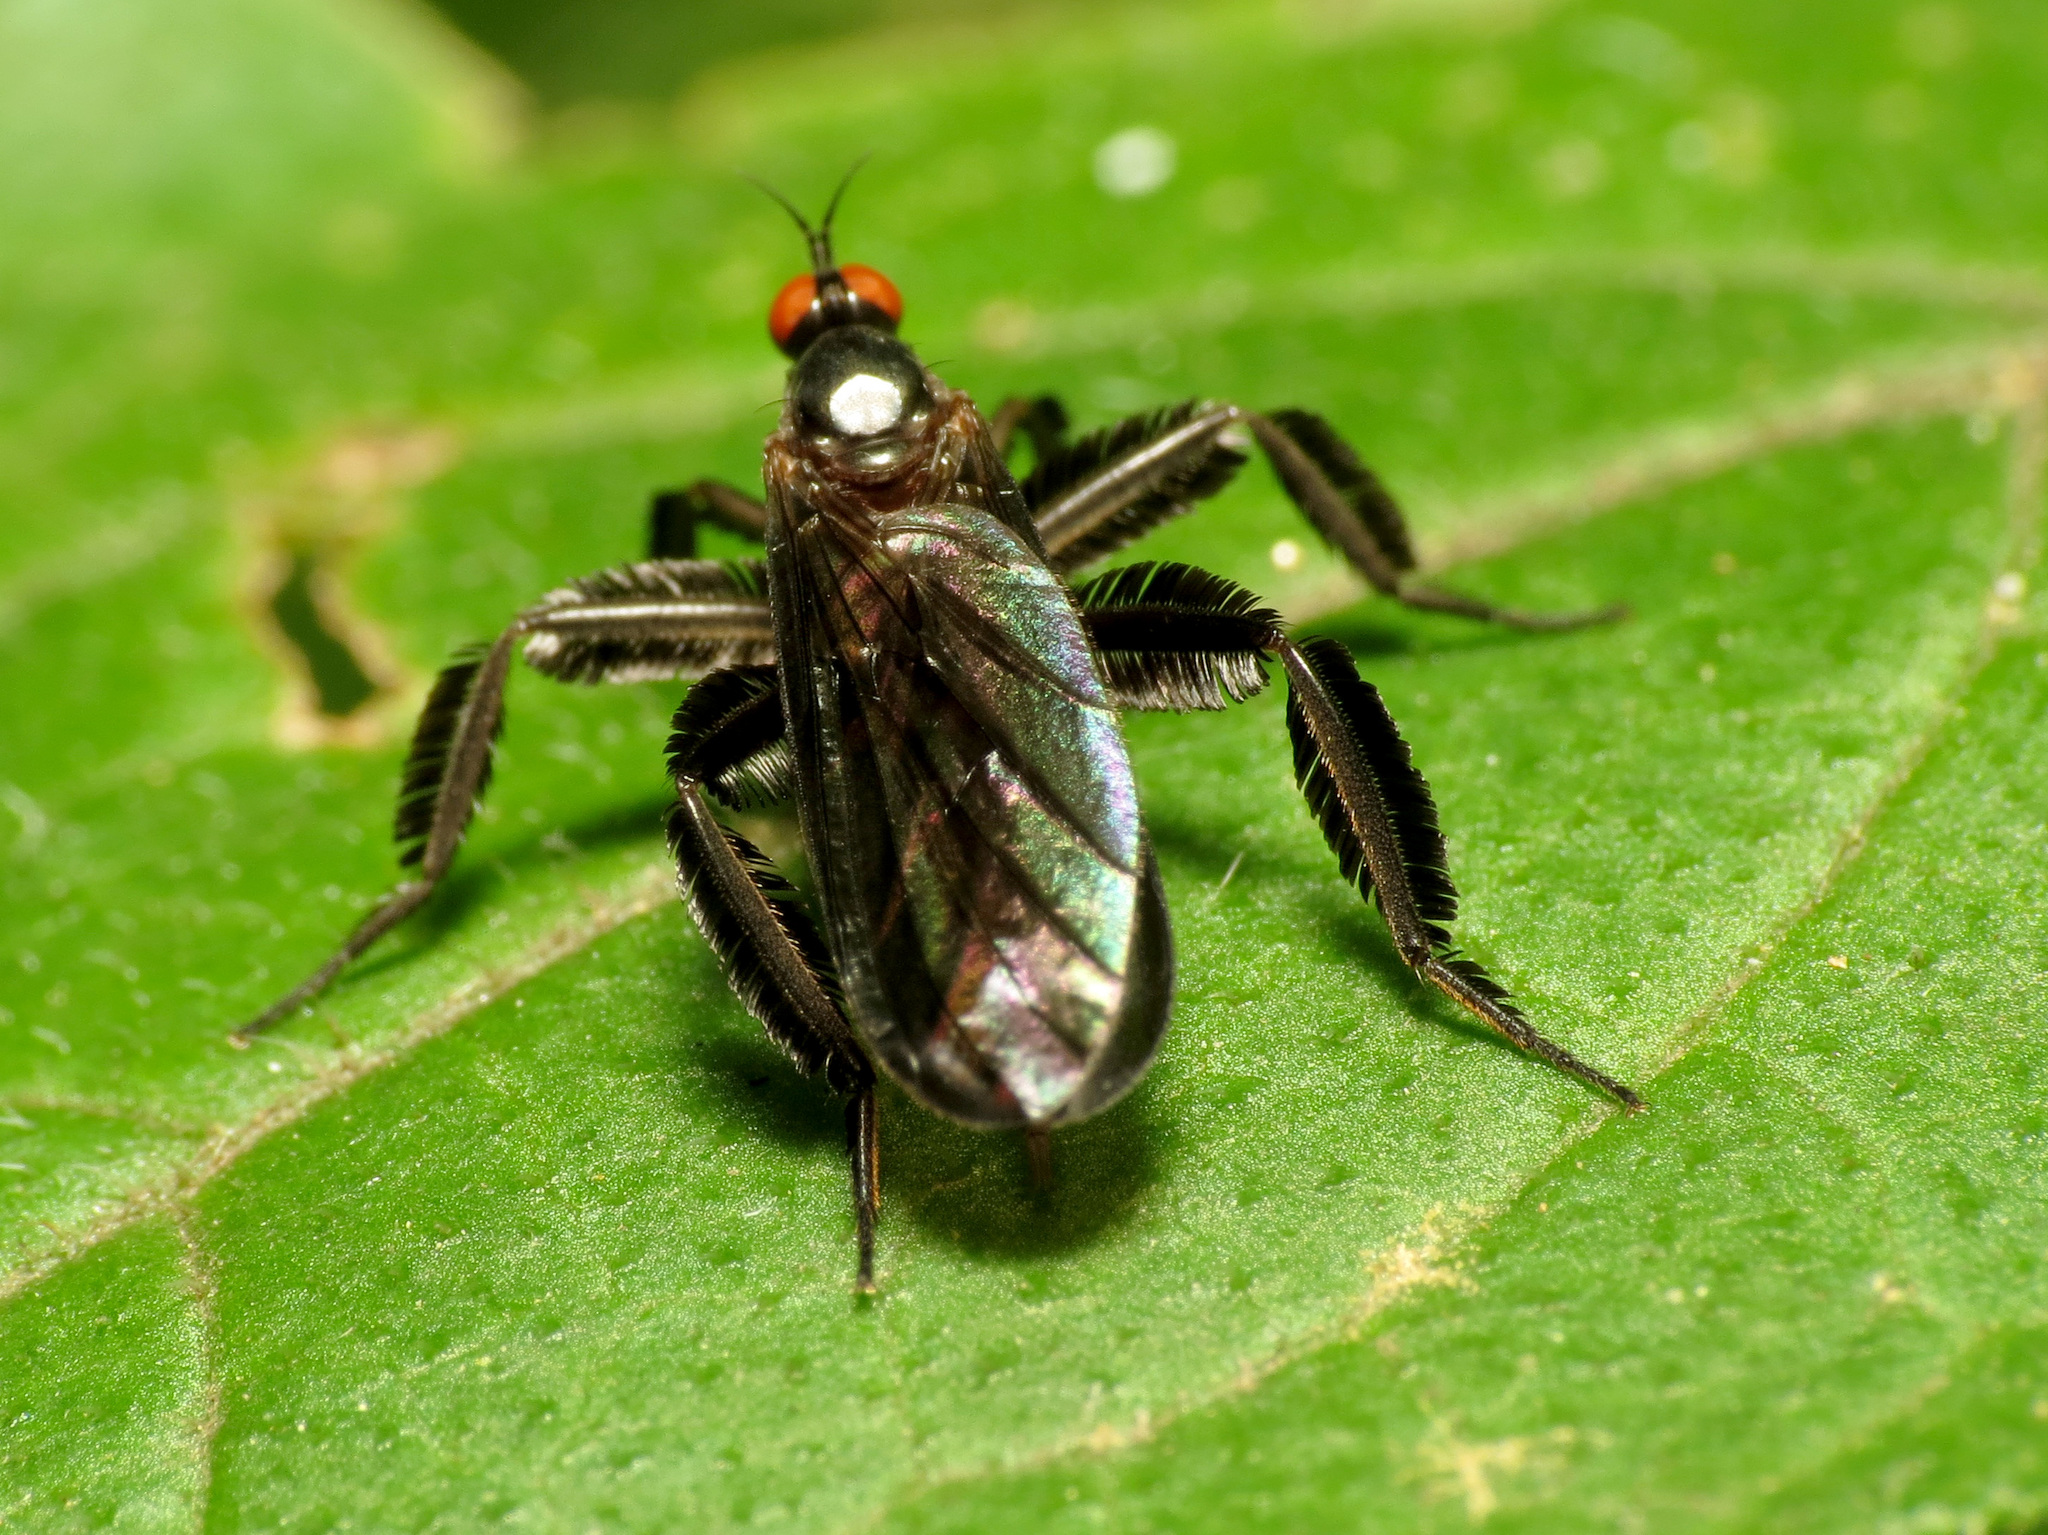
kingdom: Animalia
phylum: Arthropoda
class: Insecta
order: Diptera
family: Empididae
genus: Rhamphomyia
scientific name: Rhamphomyia longicauda
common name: Long-tailed dance fly
